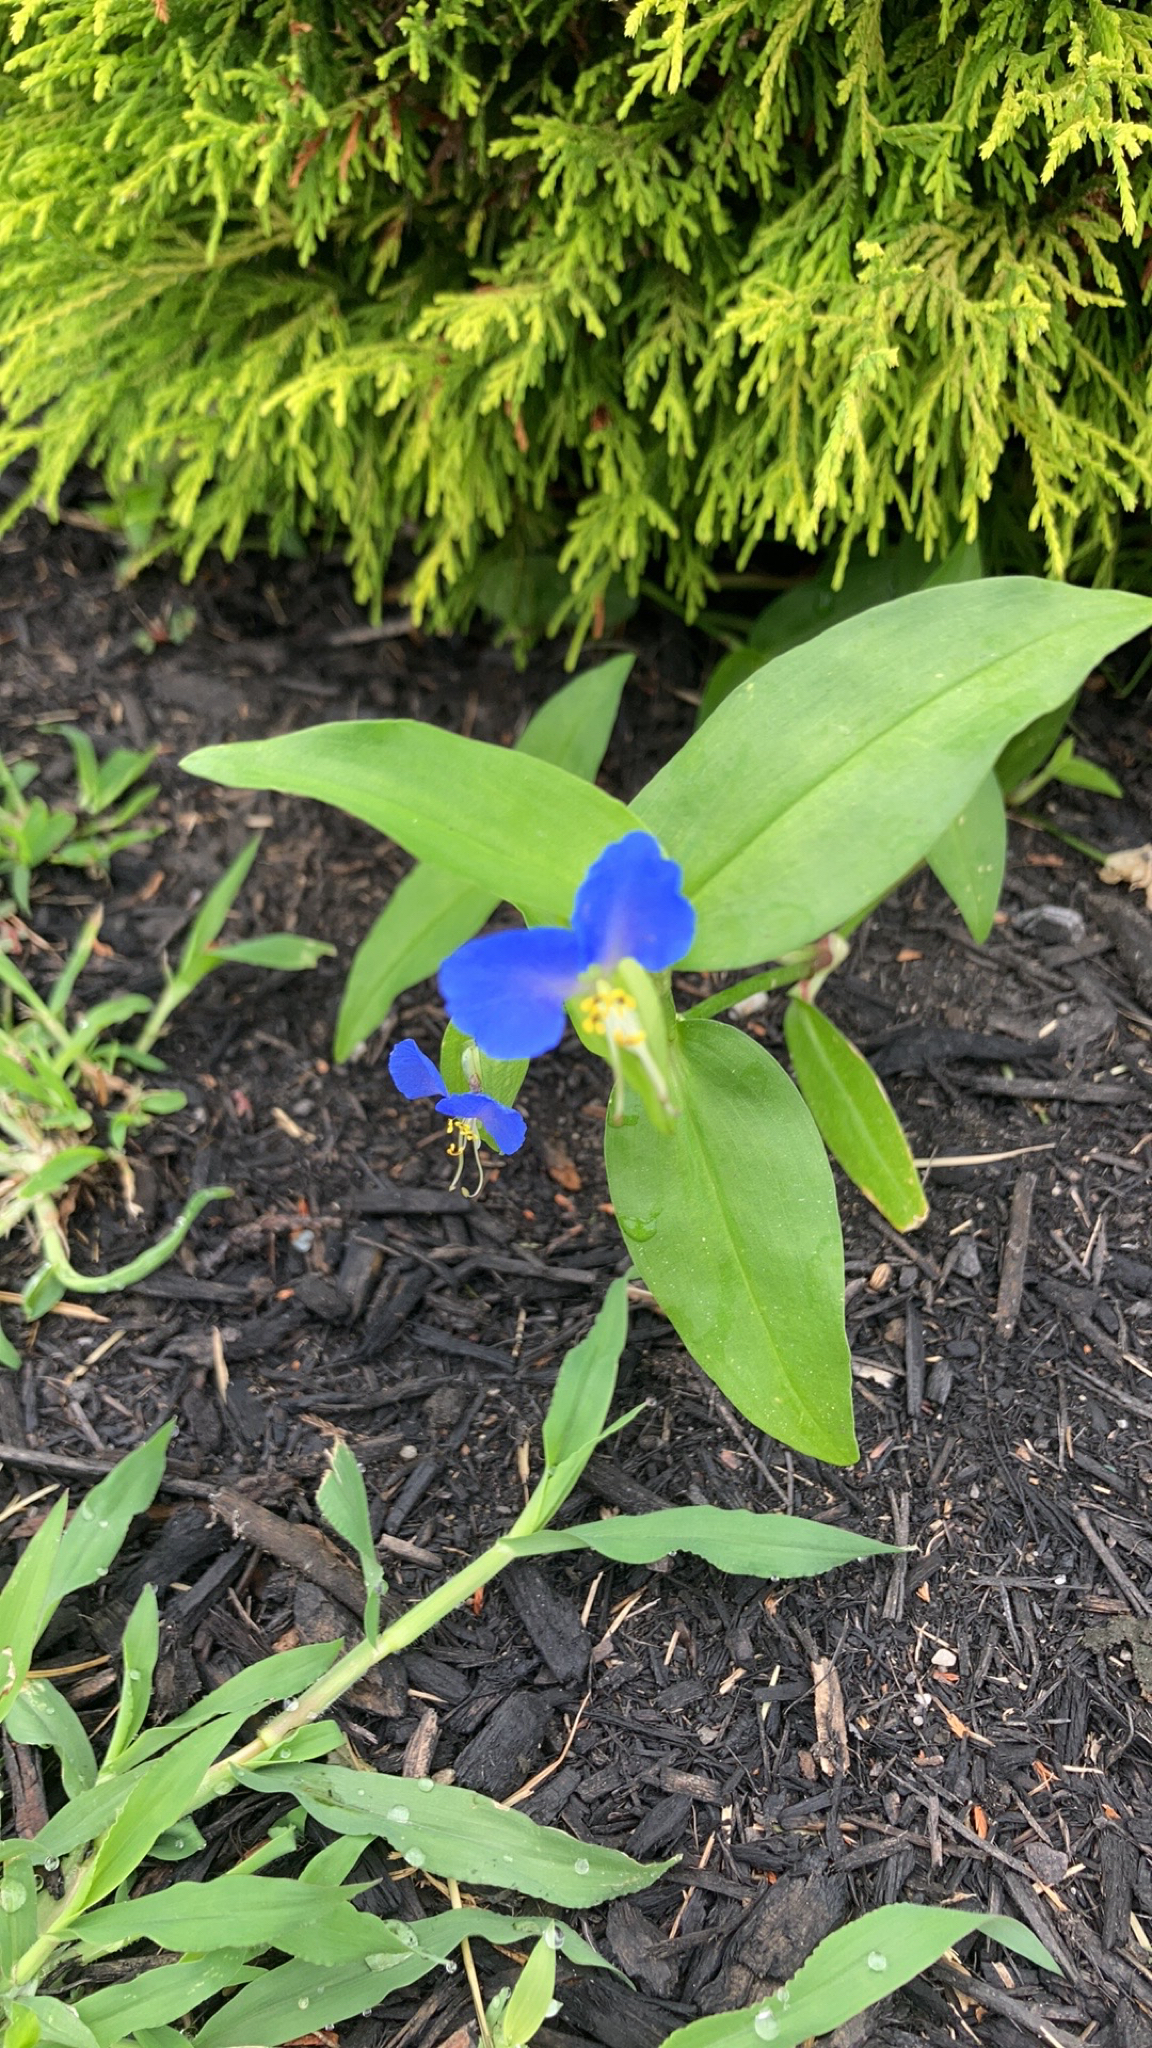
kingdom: Plantae
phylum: Tracheophyta
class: Liliopsida
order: Commelinales
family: Commelinaceae
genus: Commelina
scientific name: Commelina communis
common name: Asiatic dayflower
